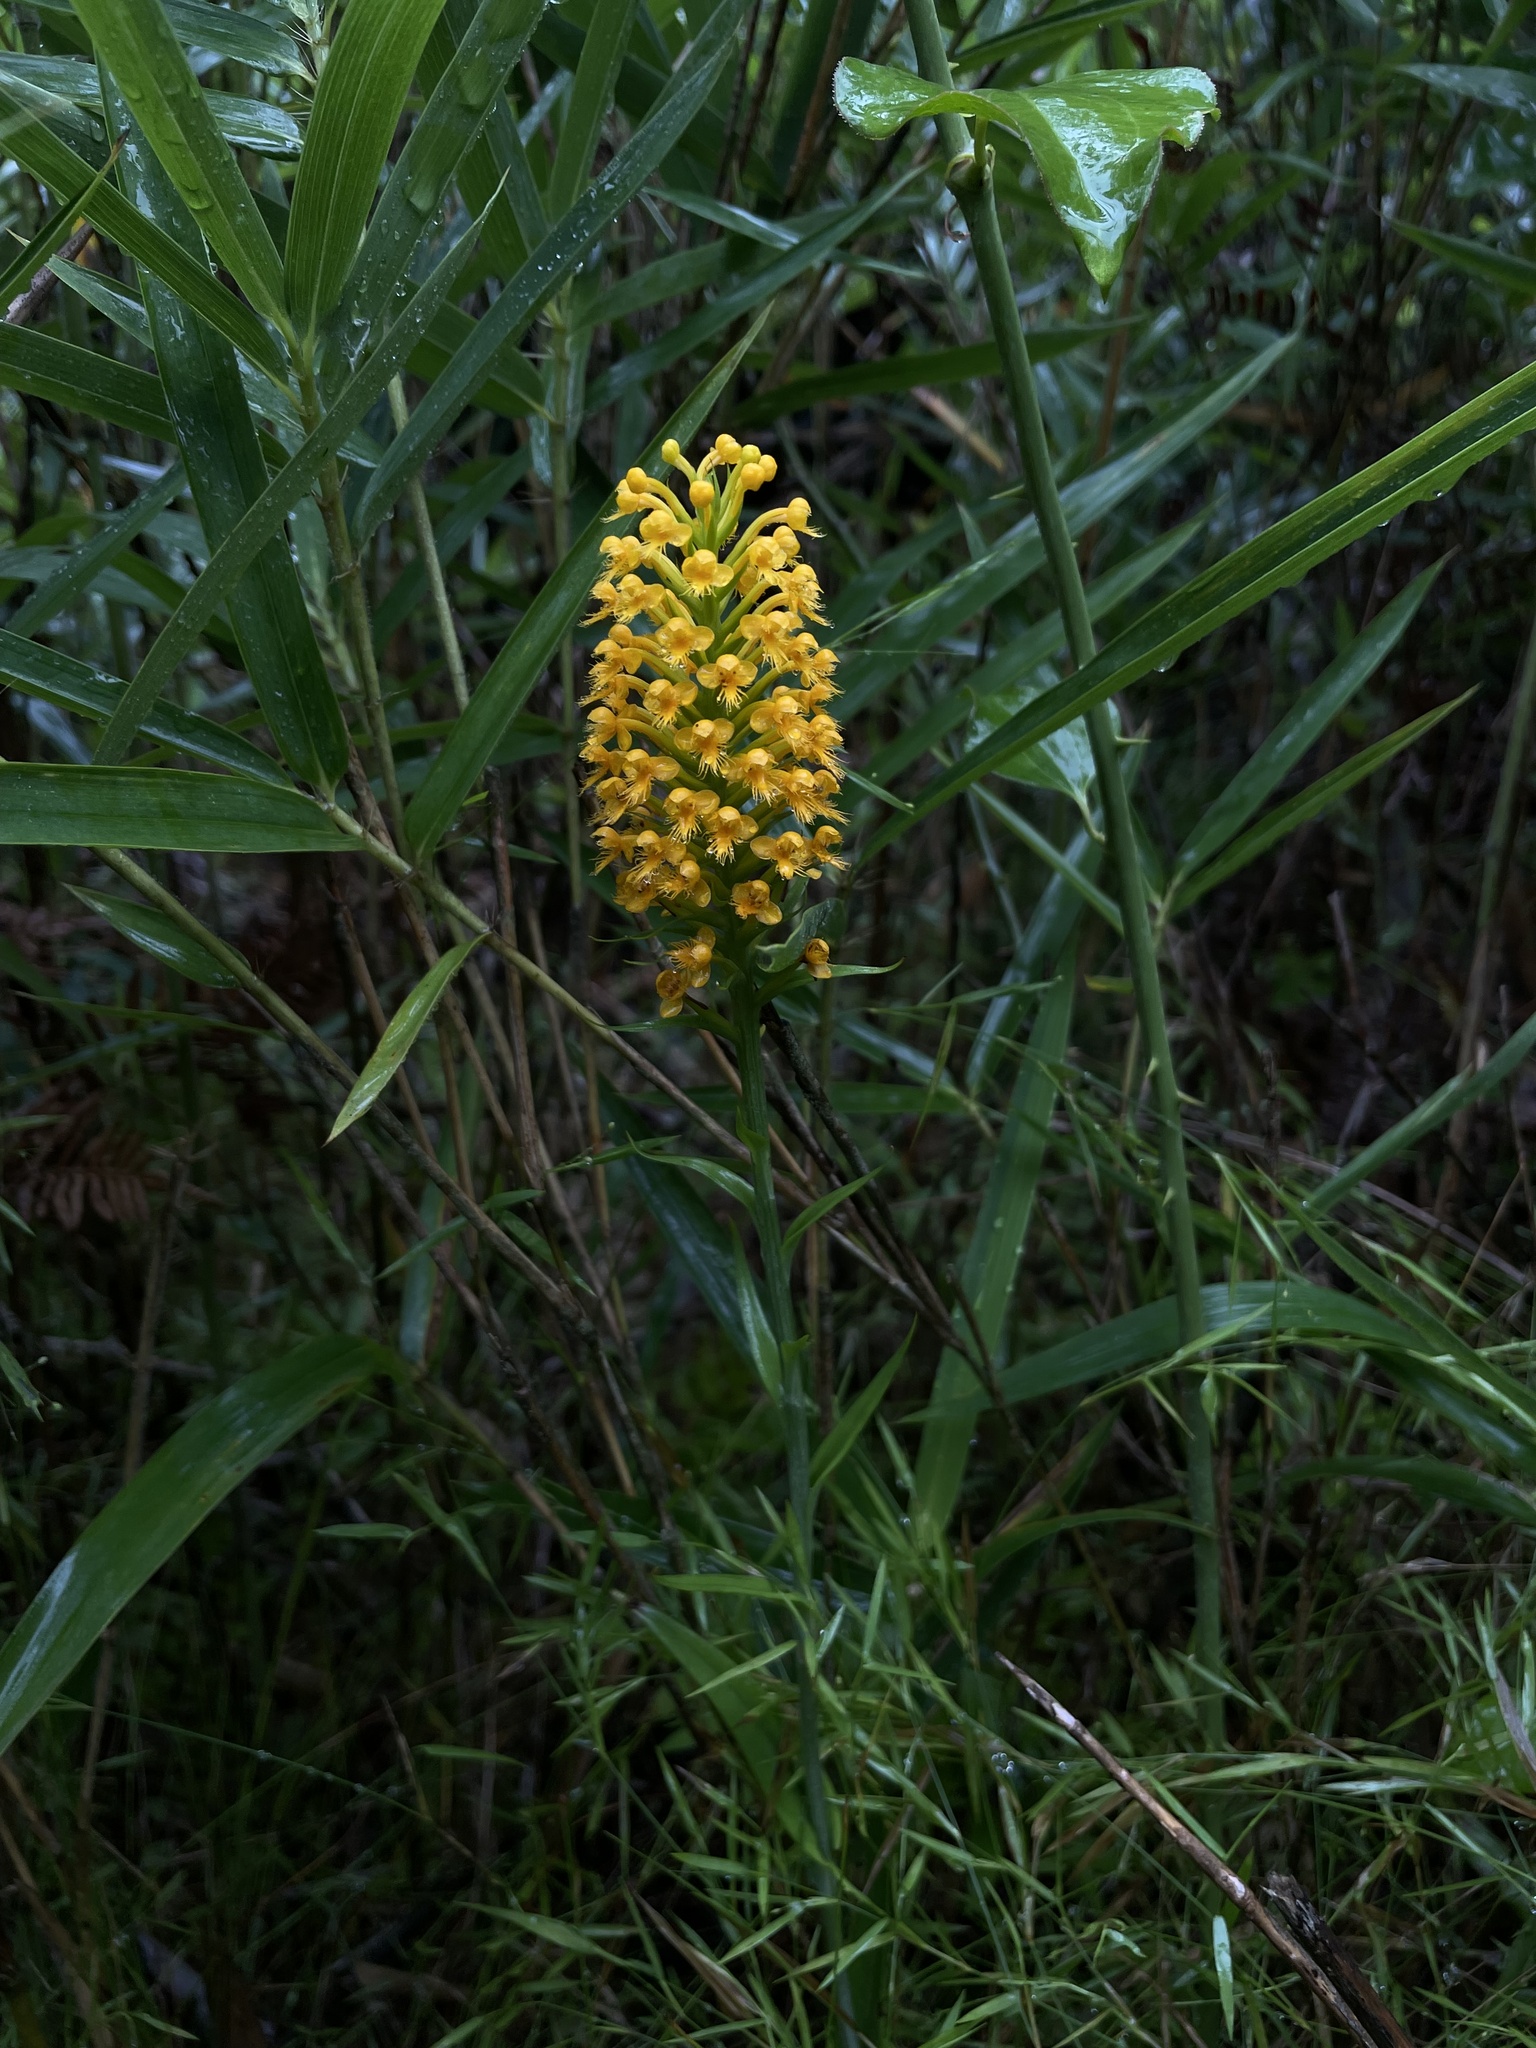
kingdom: Plantae
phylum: Tracheophyta
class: Liliopsida
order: Asparagales
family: Orchidaceae
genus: Platanthera
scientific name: Platanthera cristata
